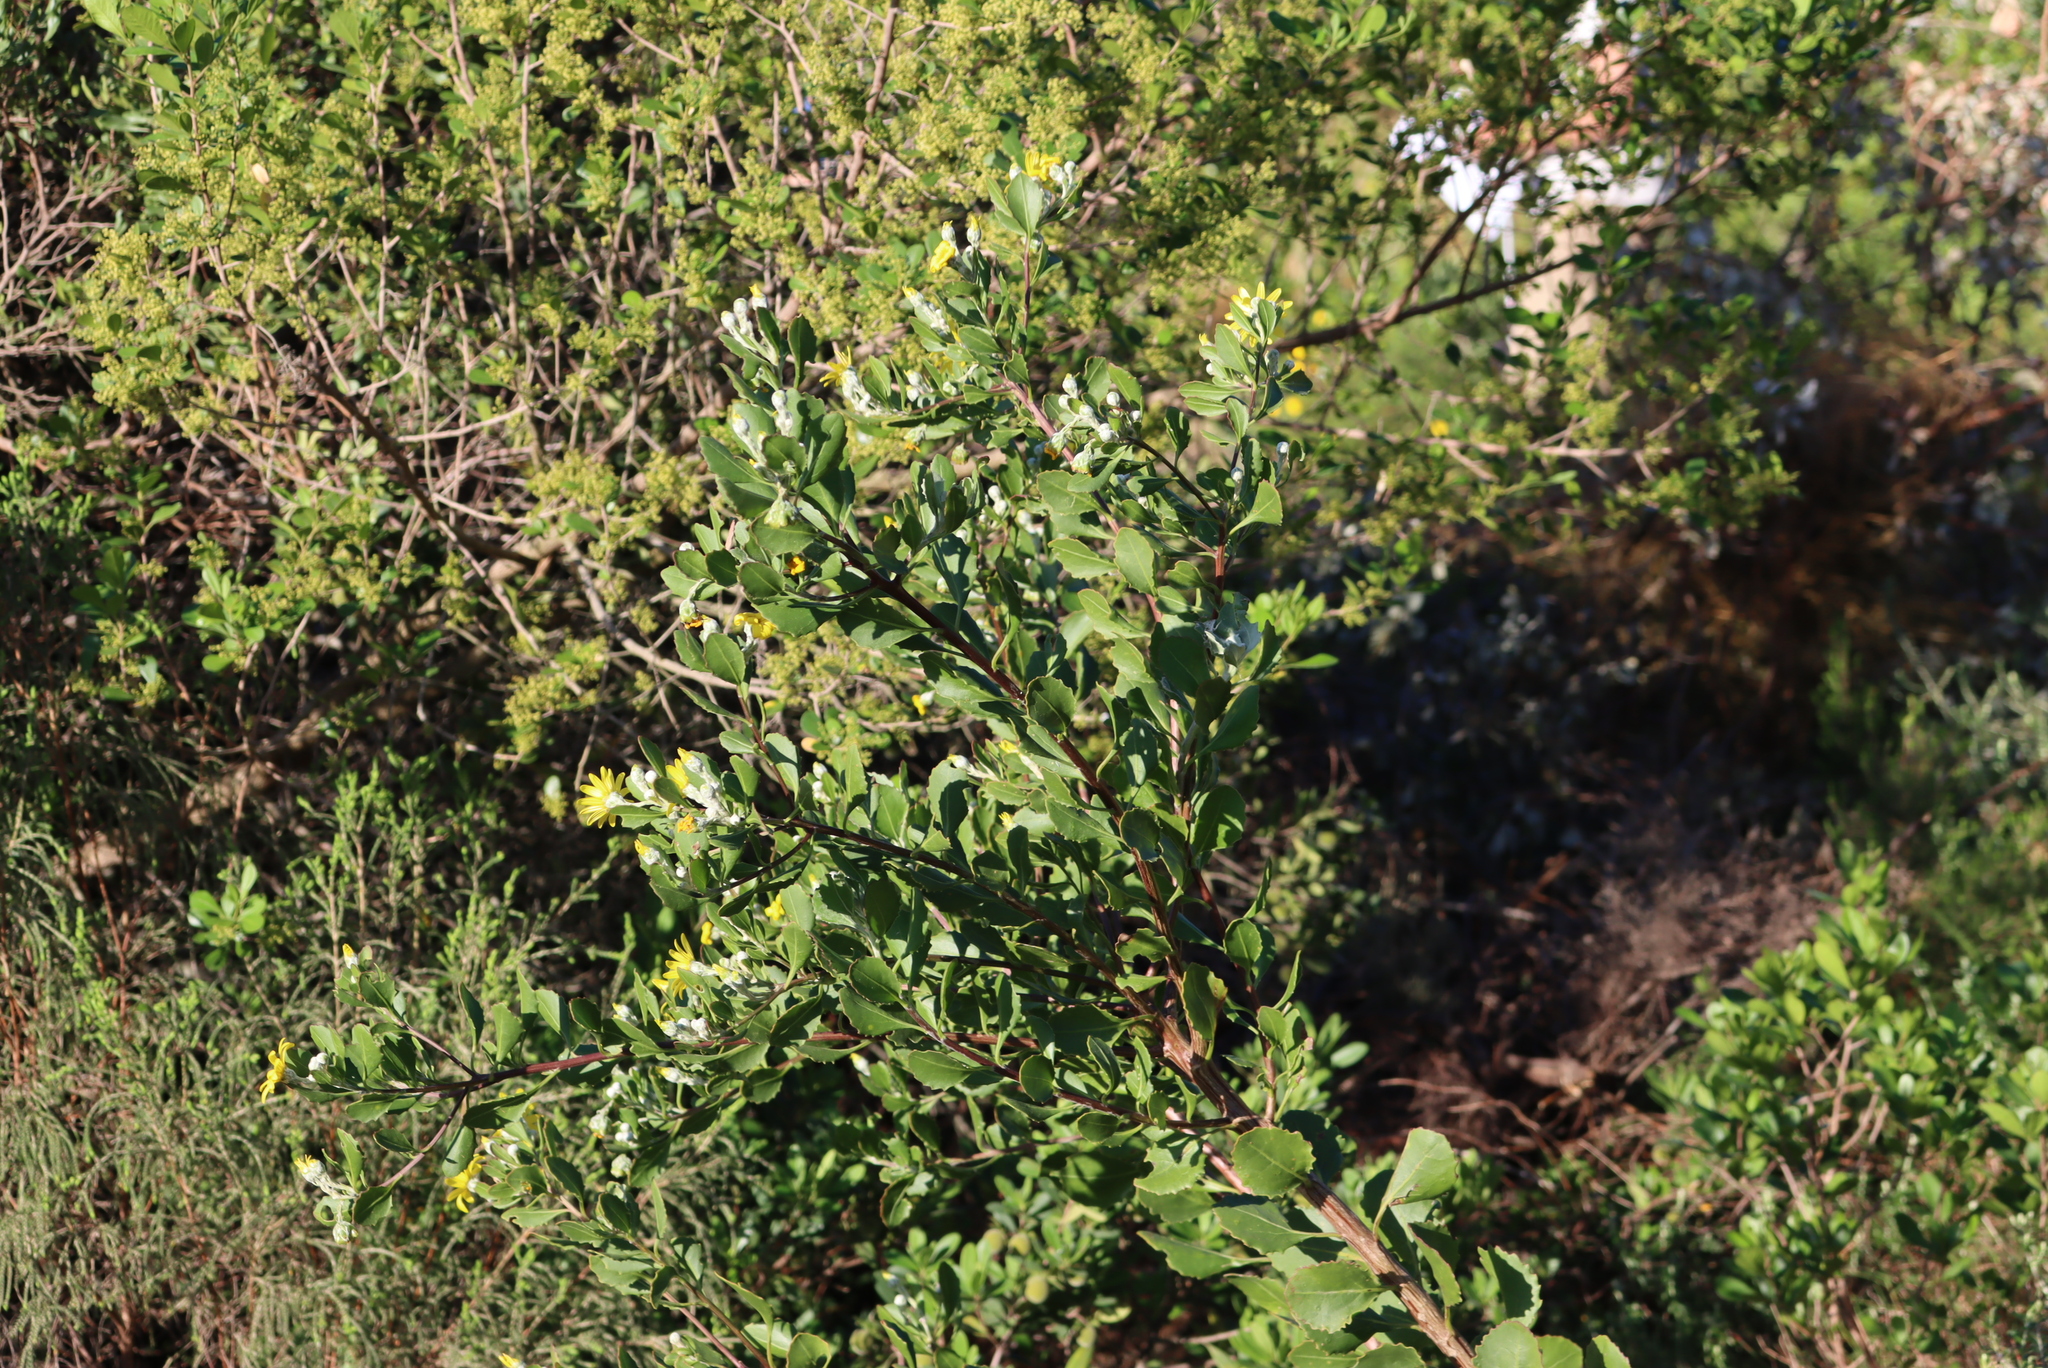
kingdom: Plantae
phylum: Tracheophyta
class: Magnoliopsida
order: Asterales
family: Asteraceae
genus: Osteospermum
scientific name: Osteospermum moniliferum
